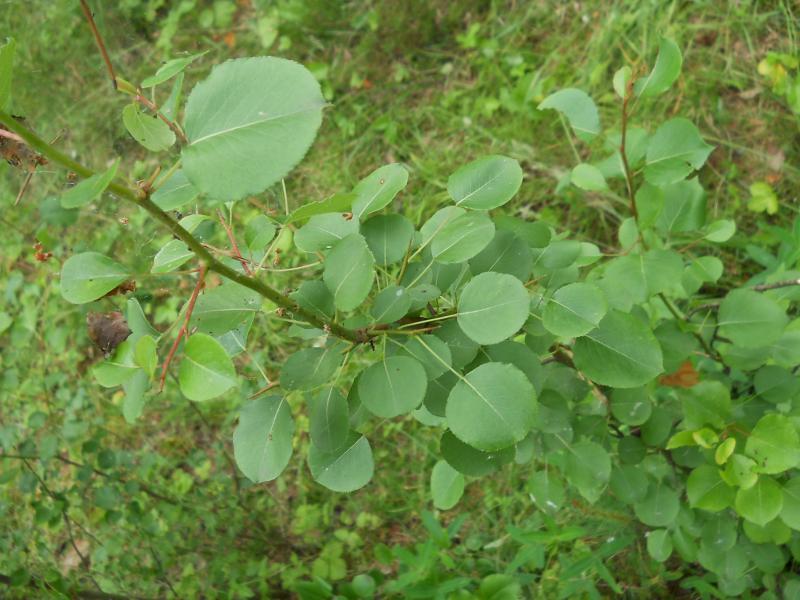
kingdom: Plantae
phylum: Tracheophyta
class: Magnoliopsida
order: Rosales
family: Rosaceae
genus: Pyrus
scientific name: Pyrus communis
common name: Pear
